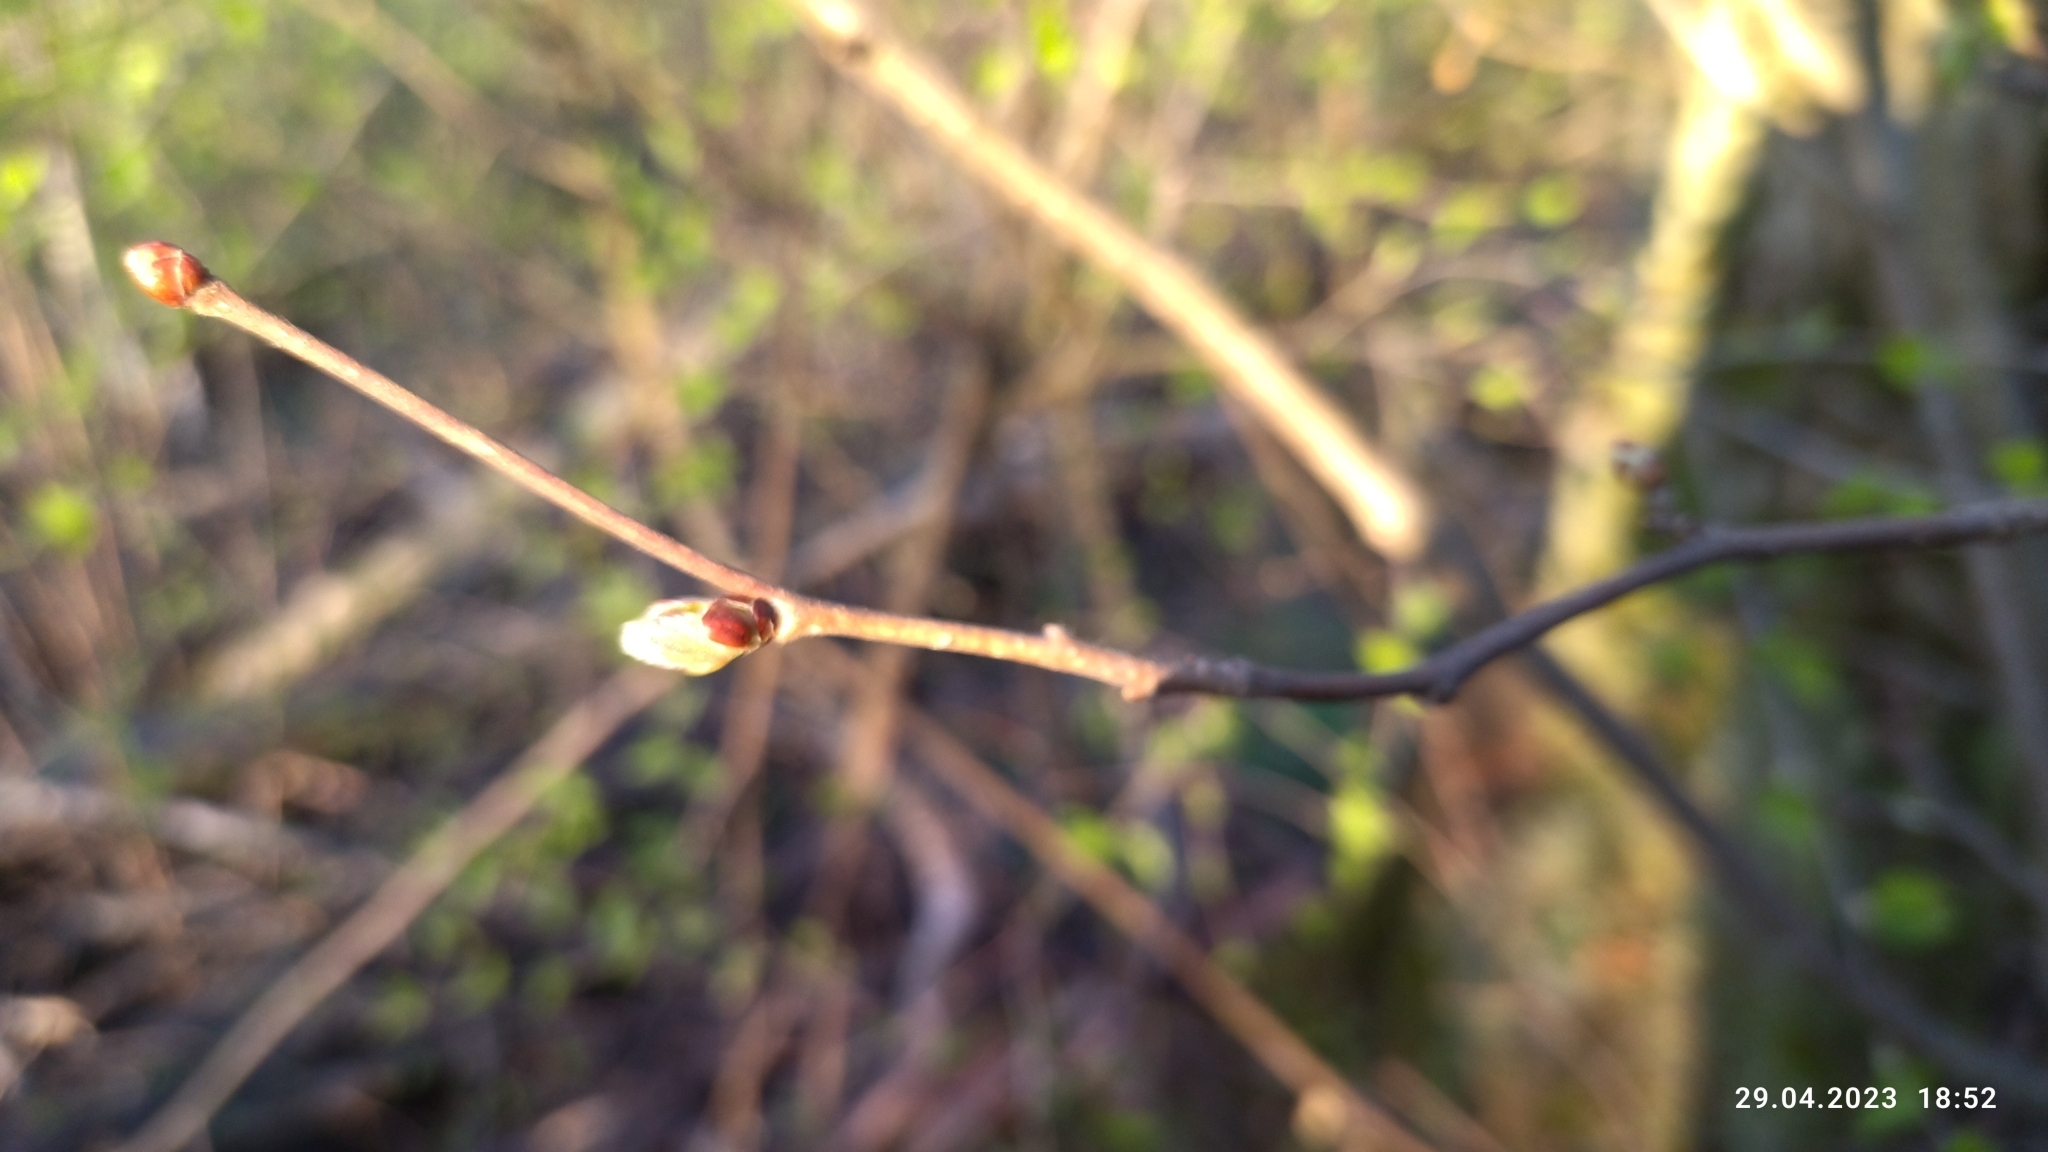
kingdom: Plantae
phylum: Tracheophyta
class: Magnoliopsida
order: Fagales
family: Betulaceae
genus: Corylus
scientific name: Corylus avellana
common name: European hazel
